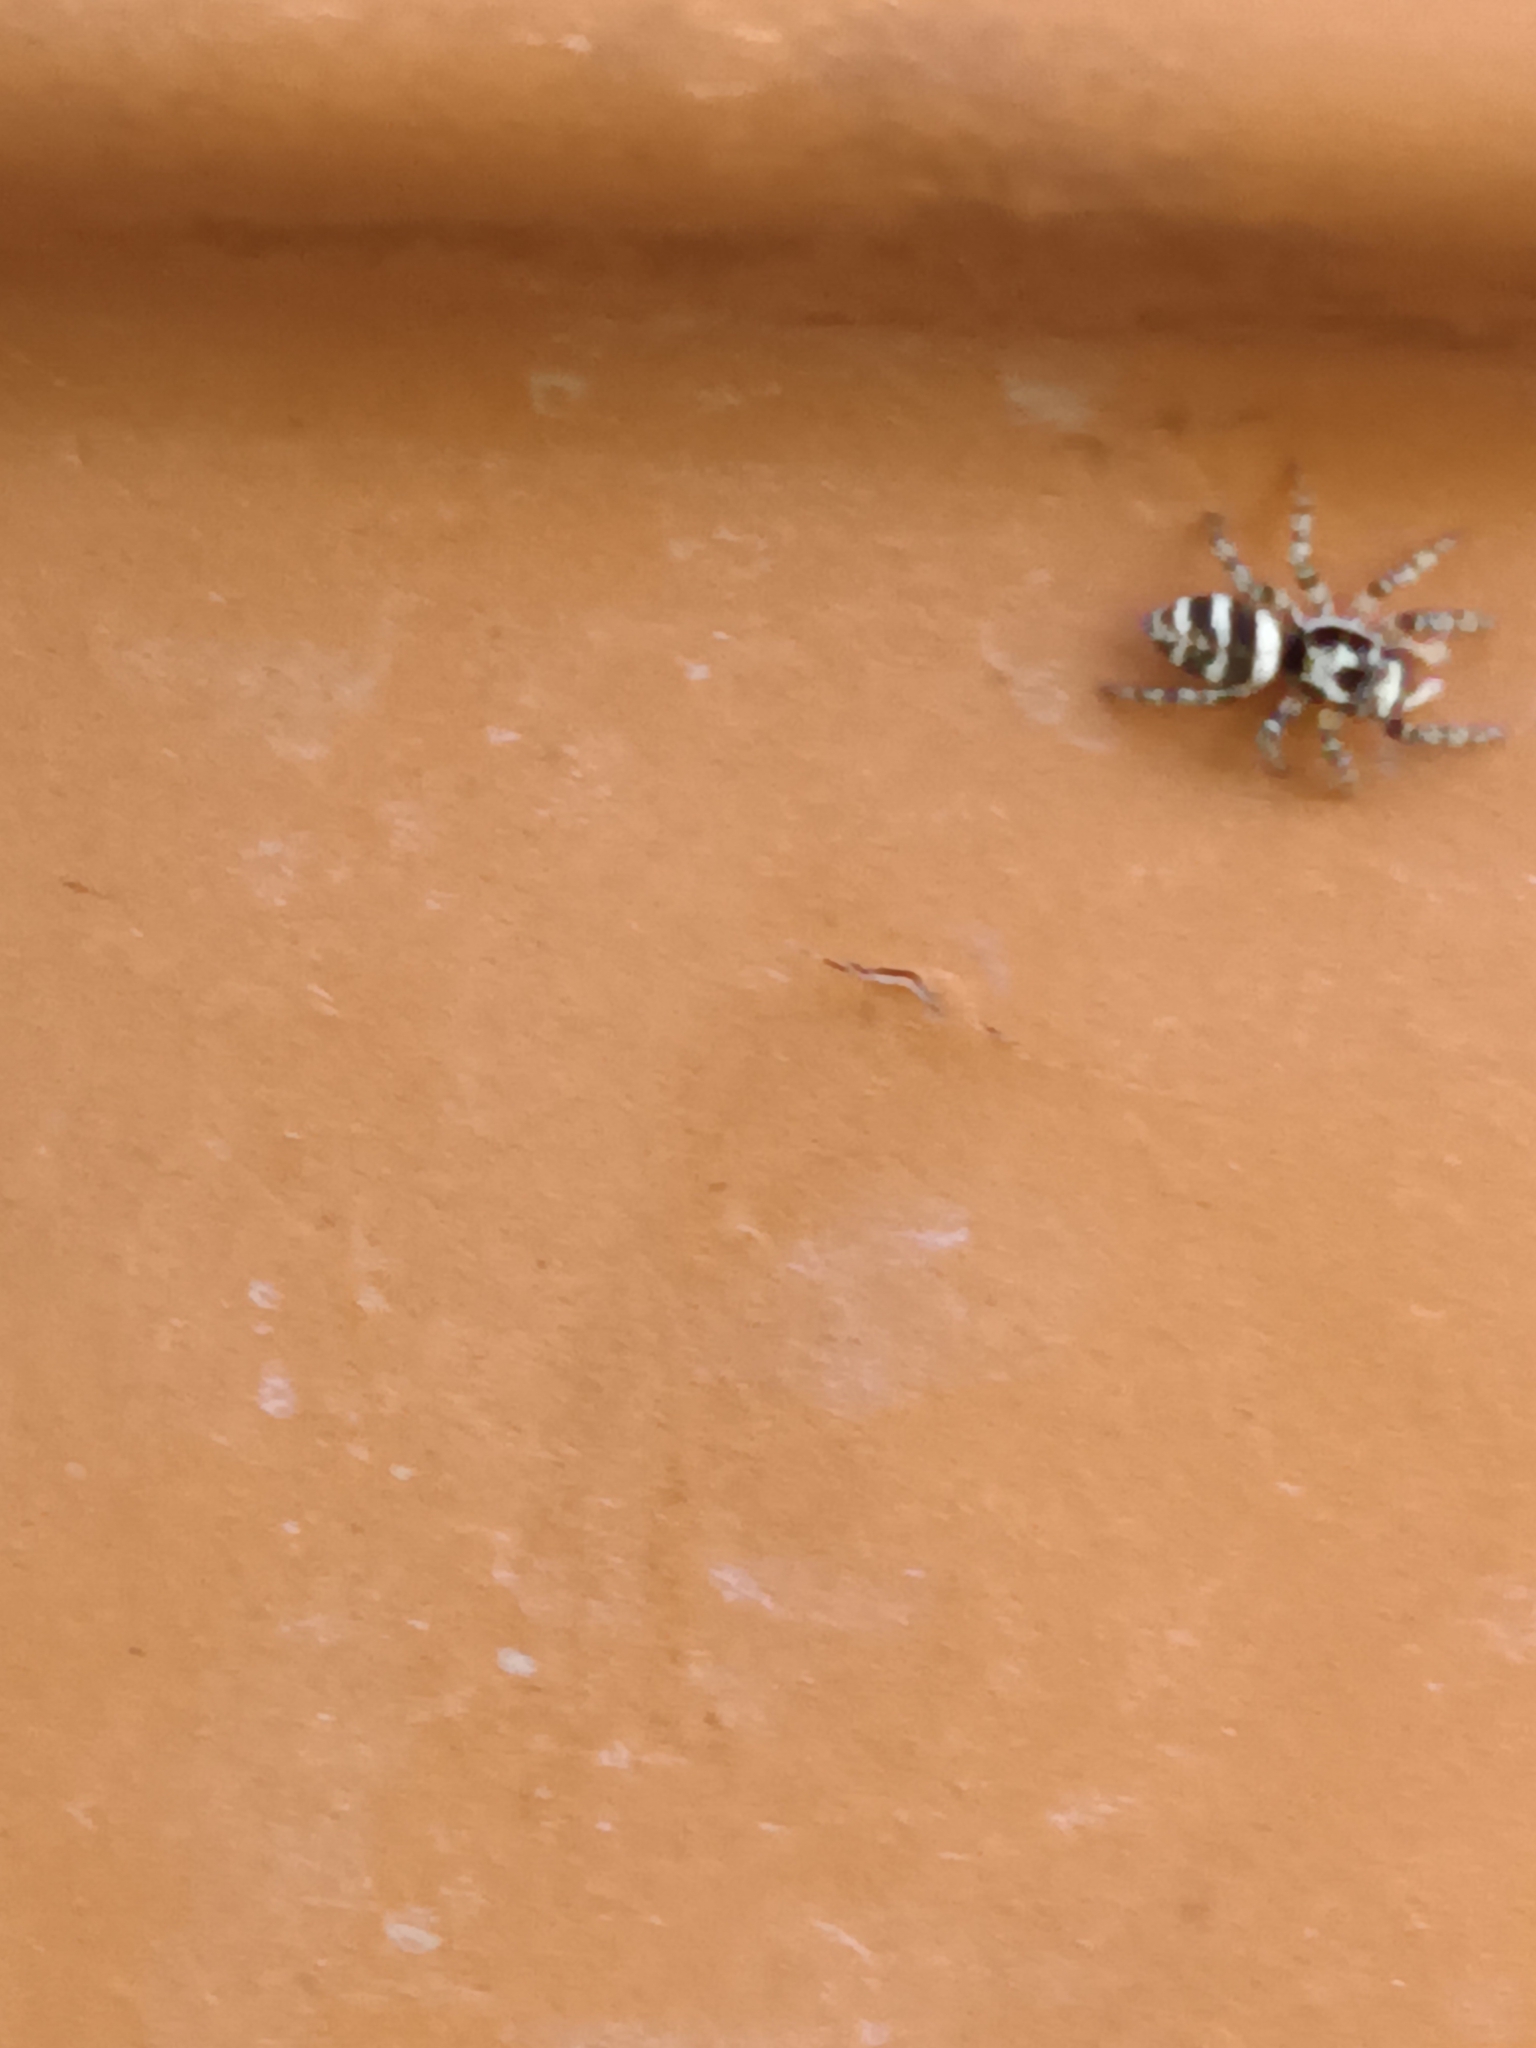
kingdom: Animalia
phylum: Arthropoda
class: Arachnida
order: Araneae
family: Salticidae
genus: Salticus
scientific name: Salticus scenicus
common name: Zebra jumper
